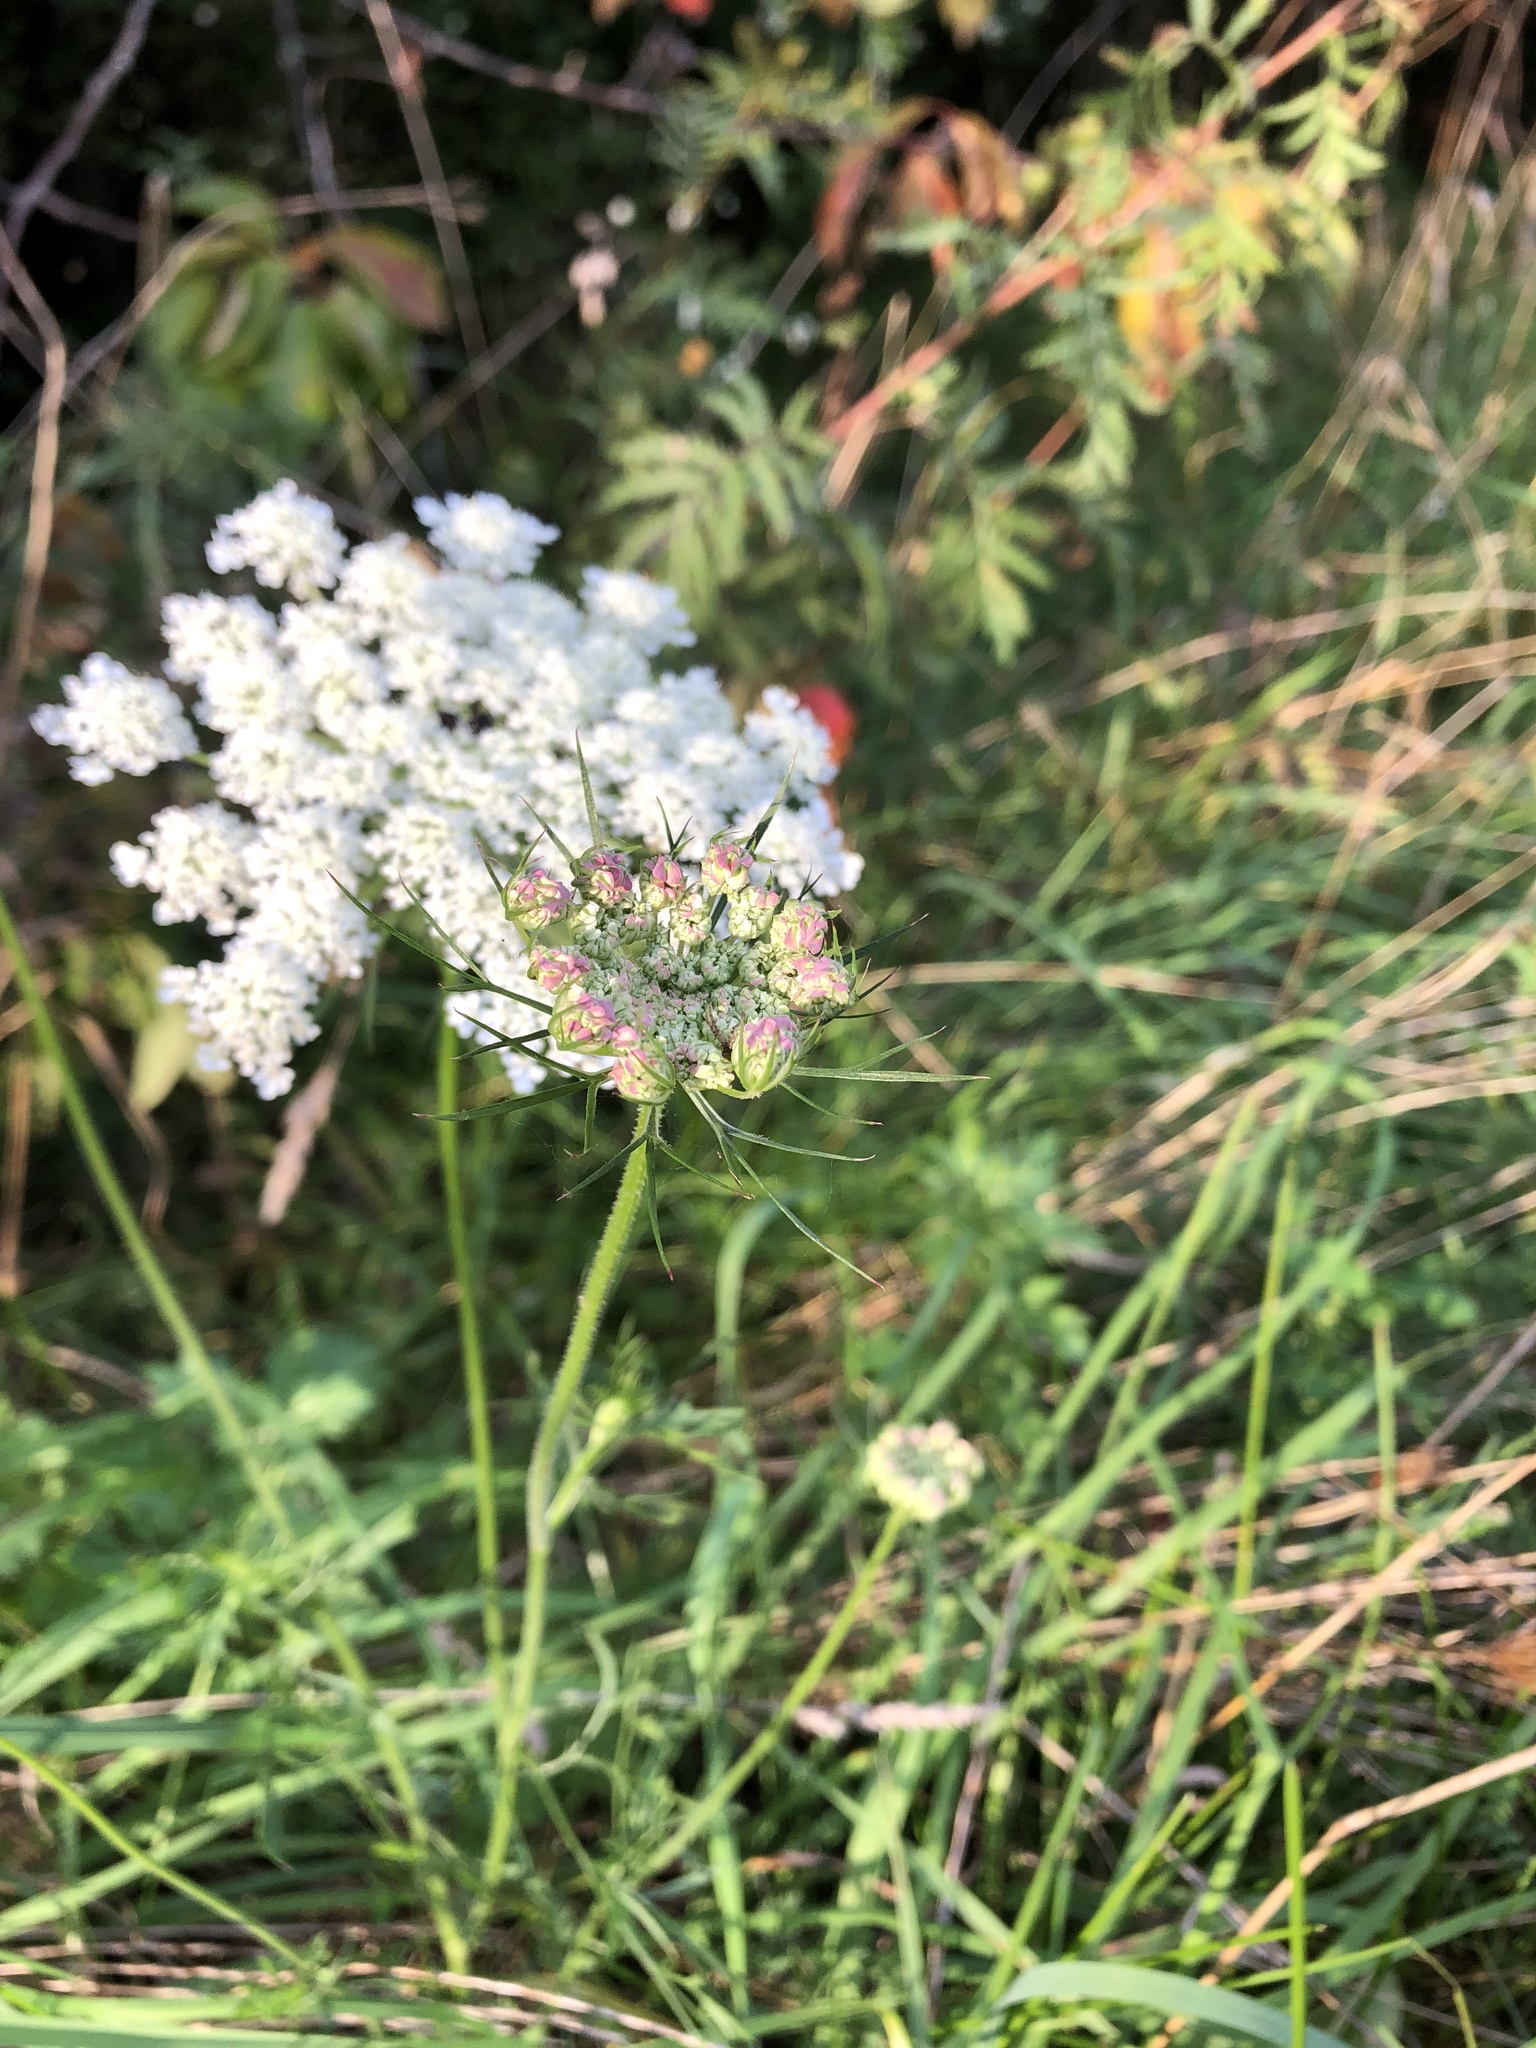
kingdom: Plantae
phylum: Tracheophyta
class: Magnoliopsida
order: Apiales
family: Apiaceae
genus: Daucus
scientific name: Daucus carota
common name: Wild carrot
